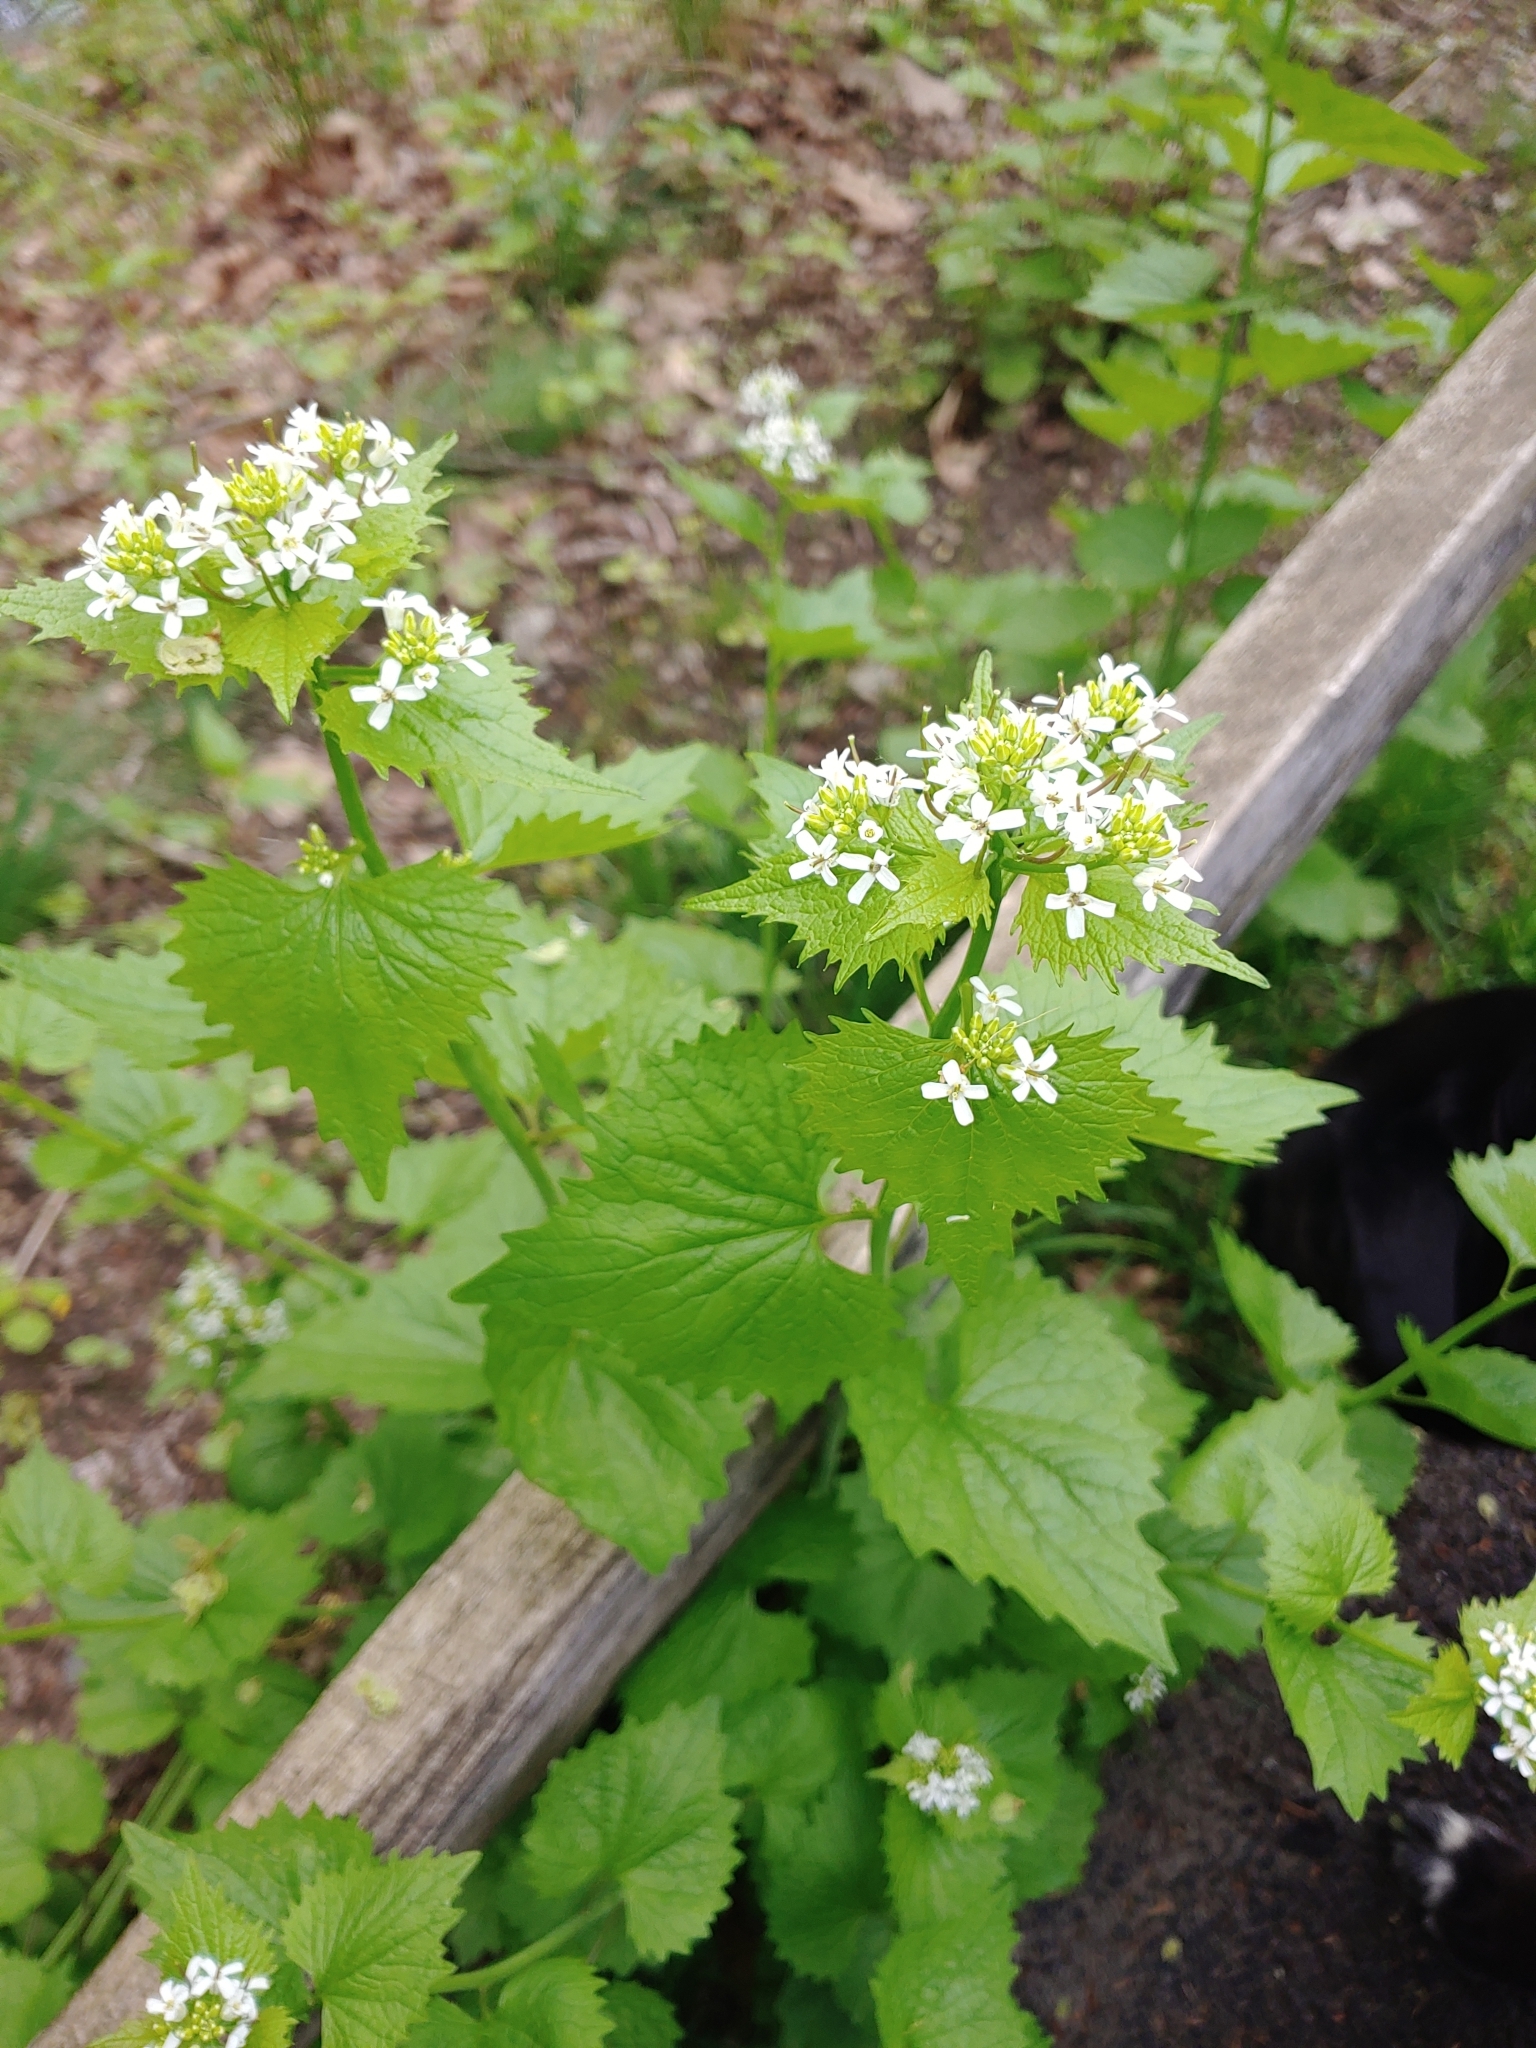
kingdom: Plantae
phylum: Tracheophyta
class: Magnoliopsida
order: Brassicales
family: Brassicaceae
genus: Alliaria
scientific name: Alliaria petiolata
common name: Garlic mustard
